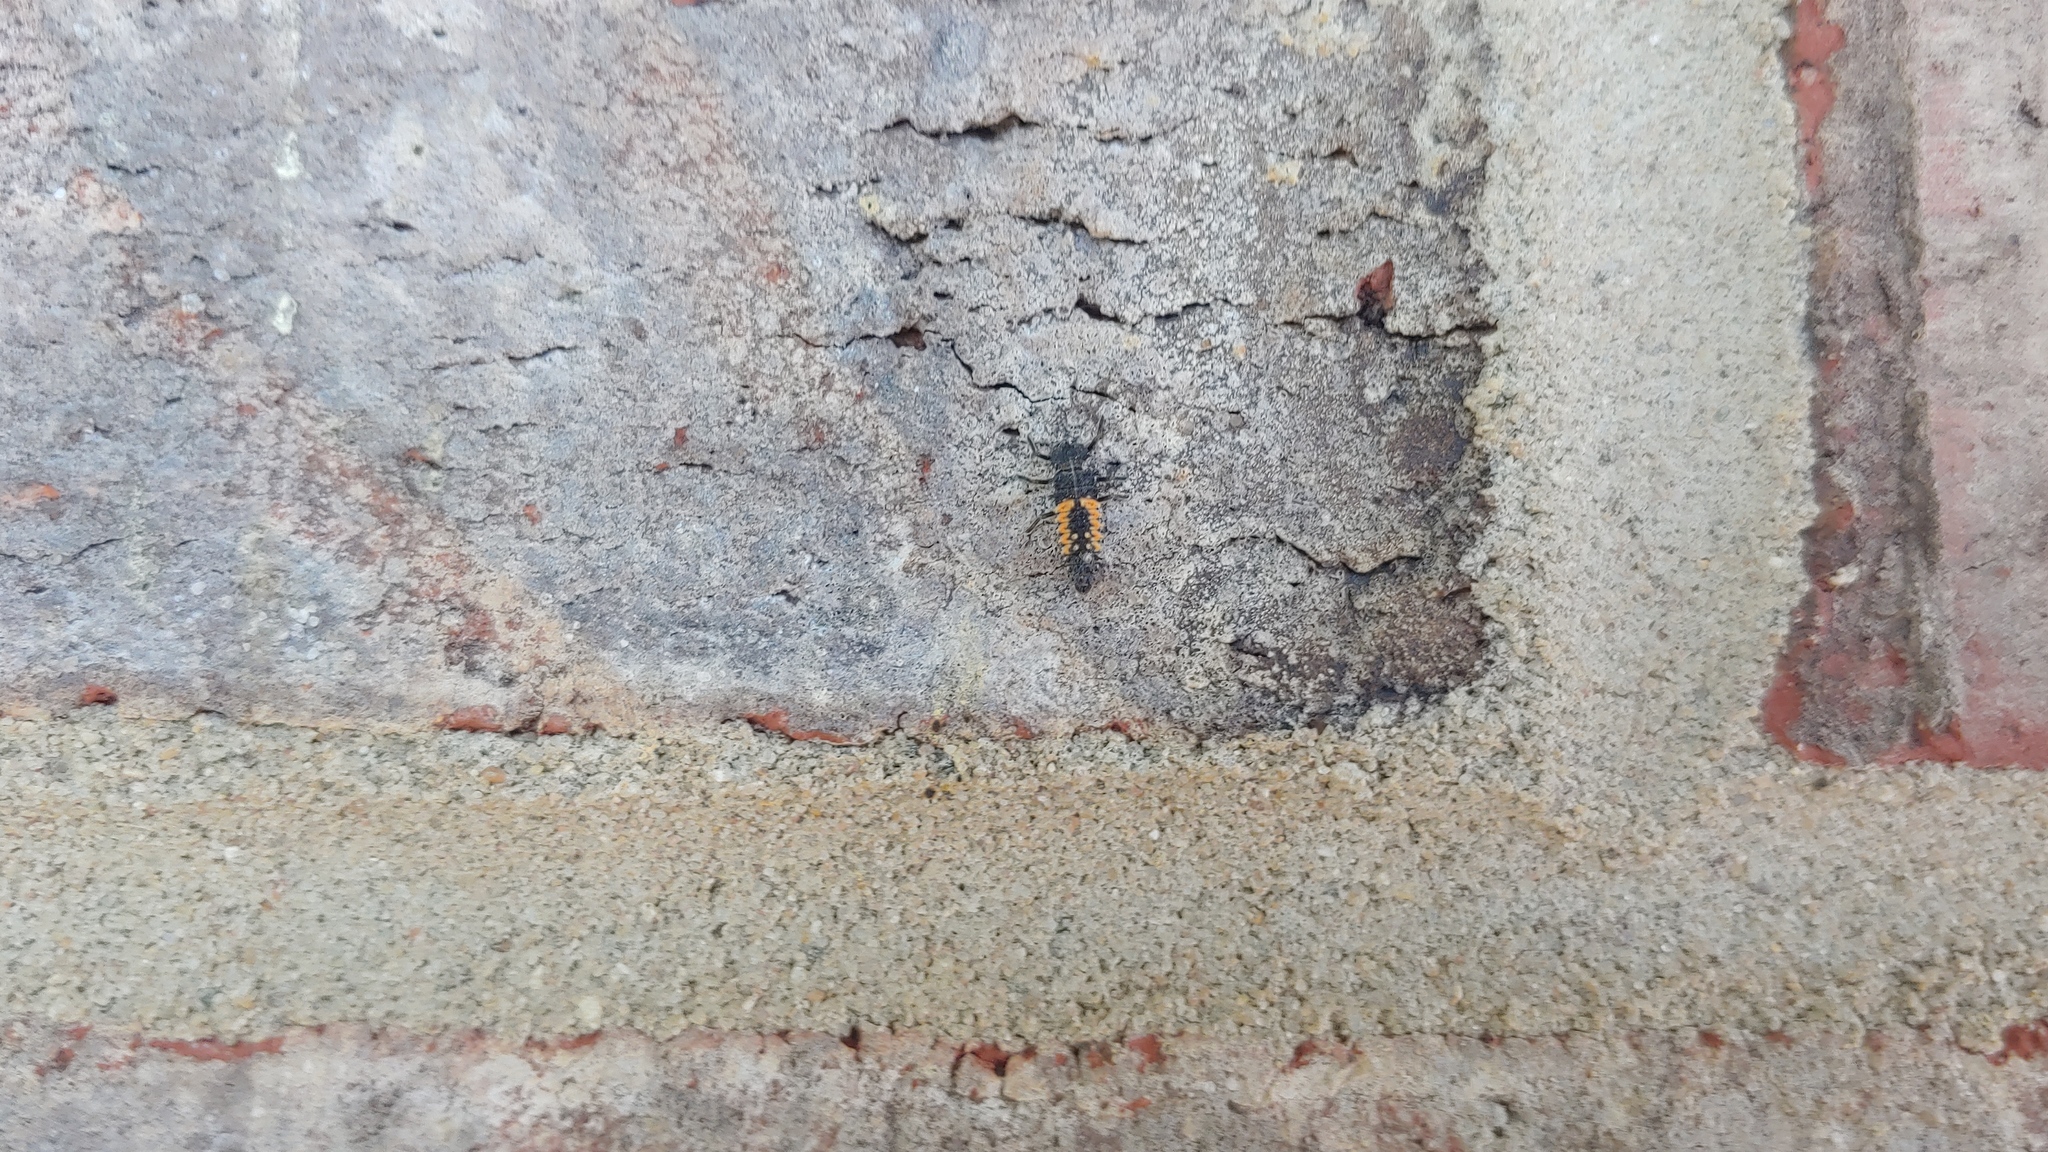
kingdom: Animalia
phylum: Arthropoda
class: Insecta
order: Coleoptera
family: Coccinellidae
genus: Harmonia
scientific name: Harmonia axyridis
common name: Harlequin ladybird
